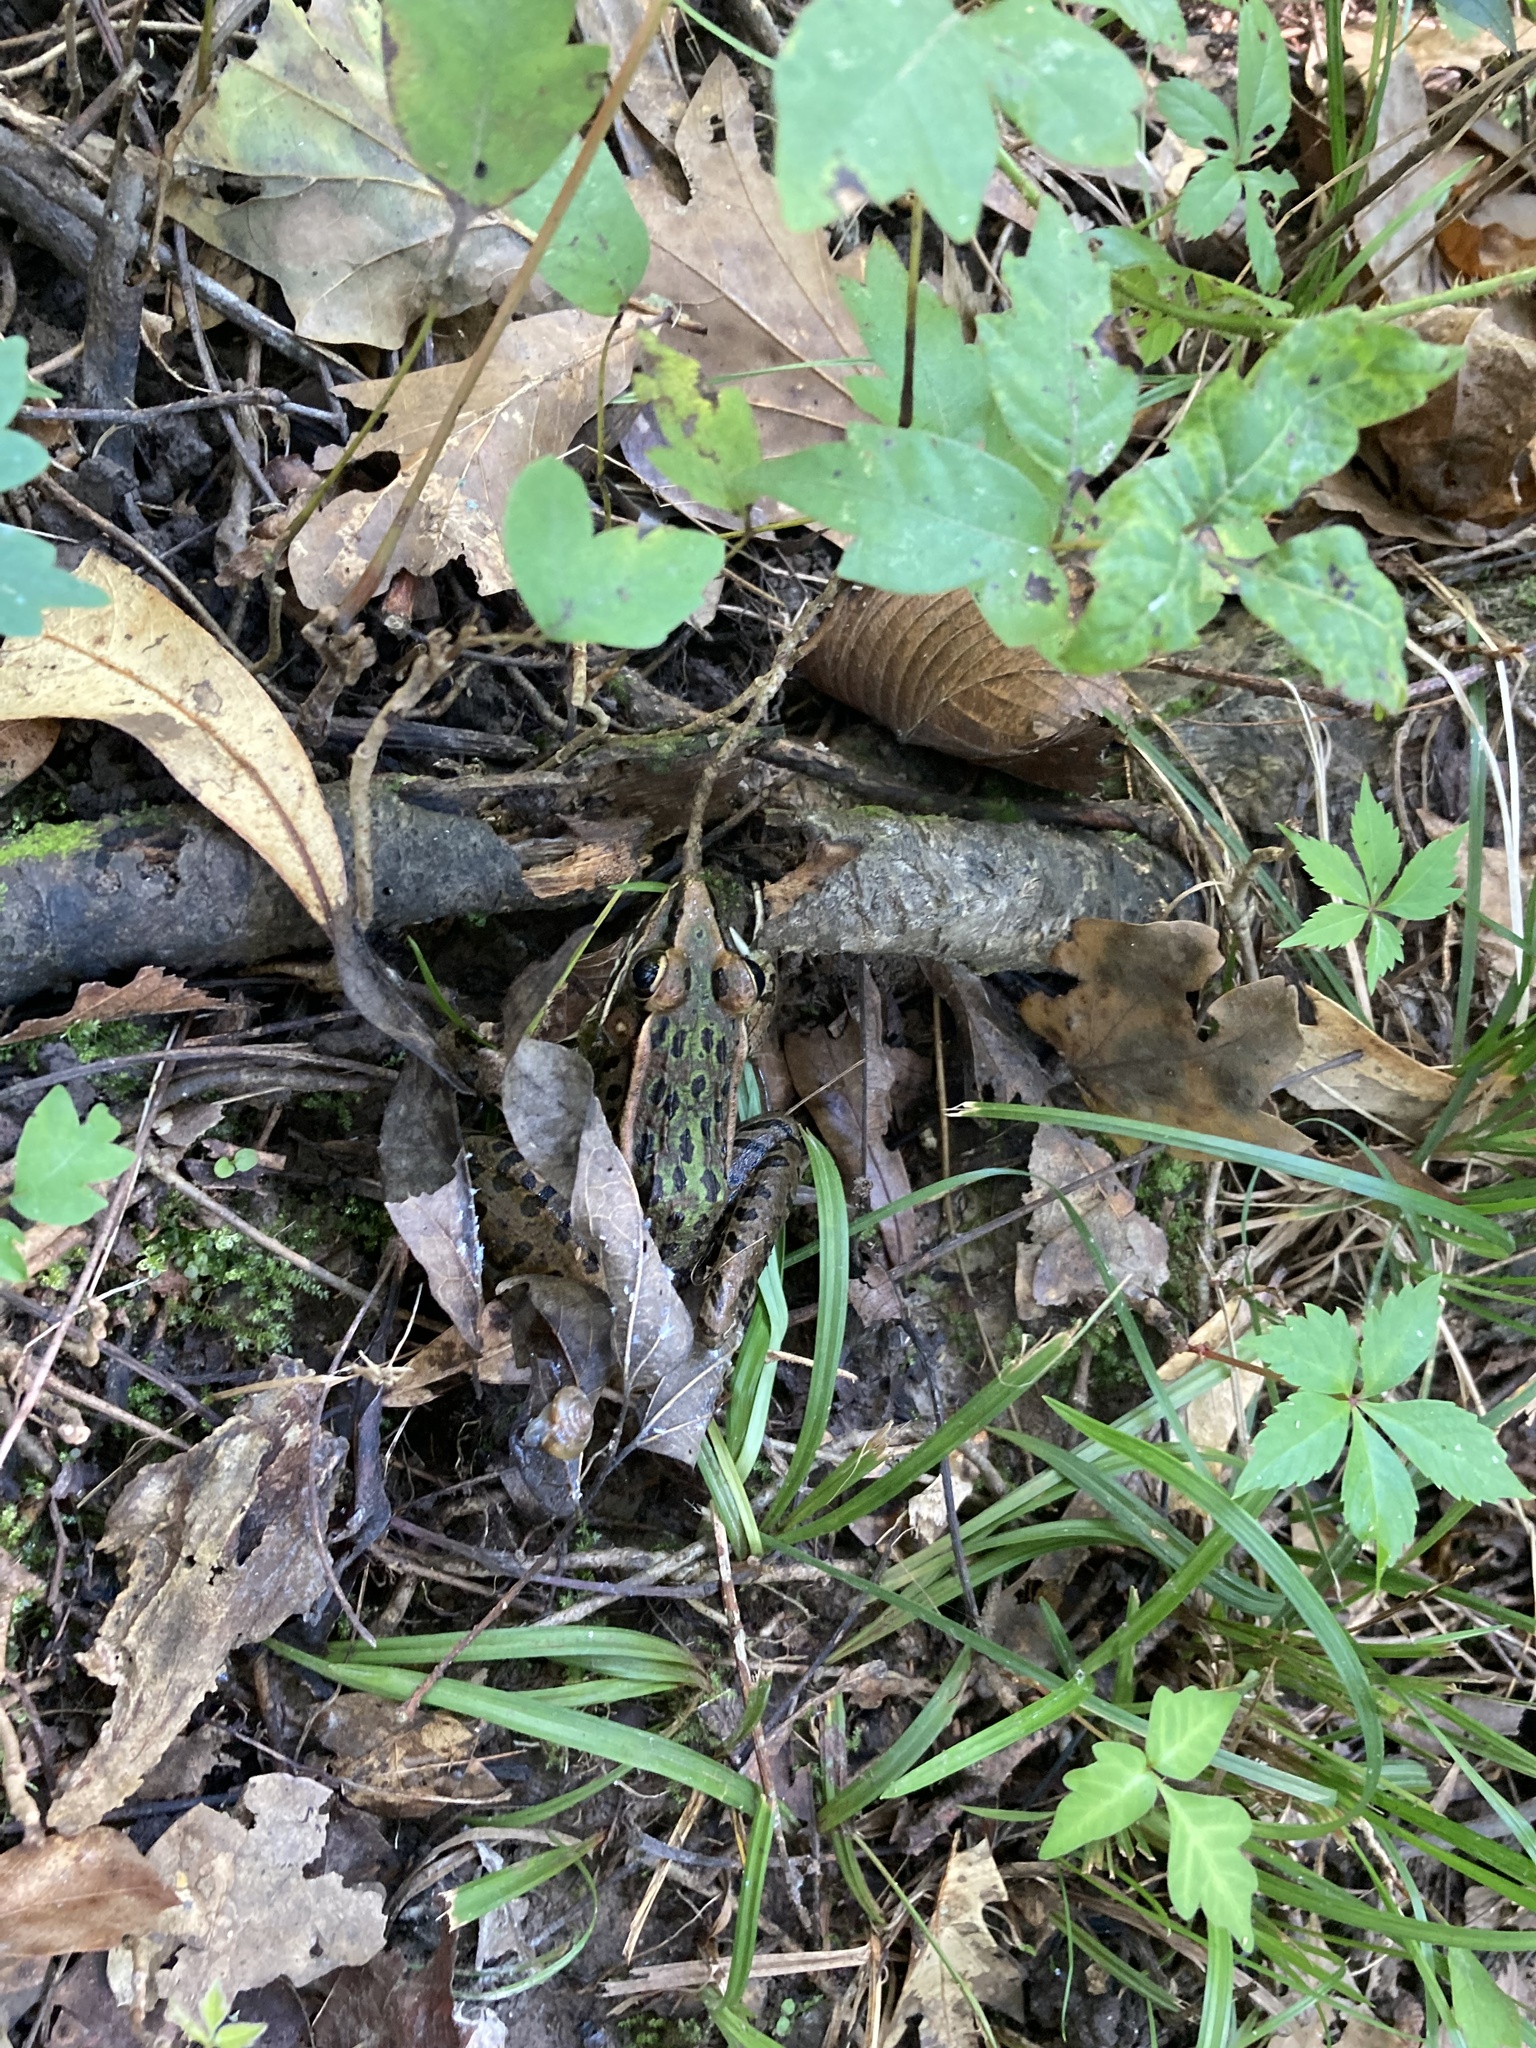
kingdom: Animalia
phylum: Chordata
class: Amphibia
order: Anura
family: Ranidae
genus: Lithobates
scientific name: Lithobates sphenocephalus
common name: Southern leopard frog
